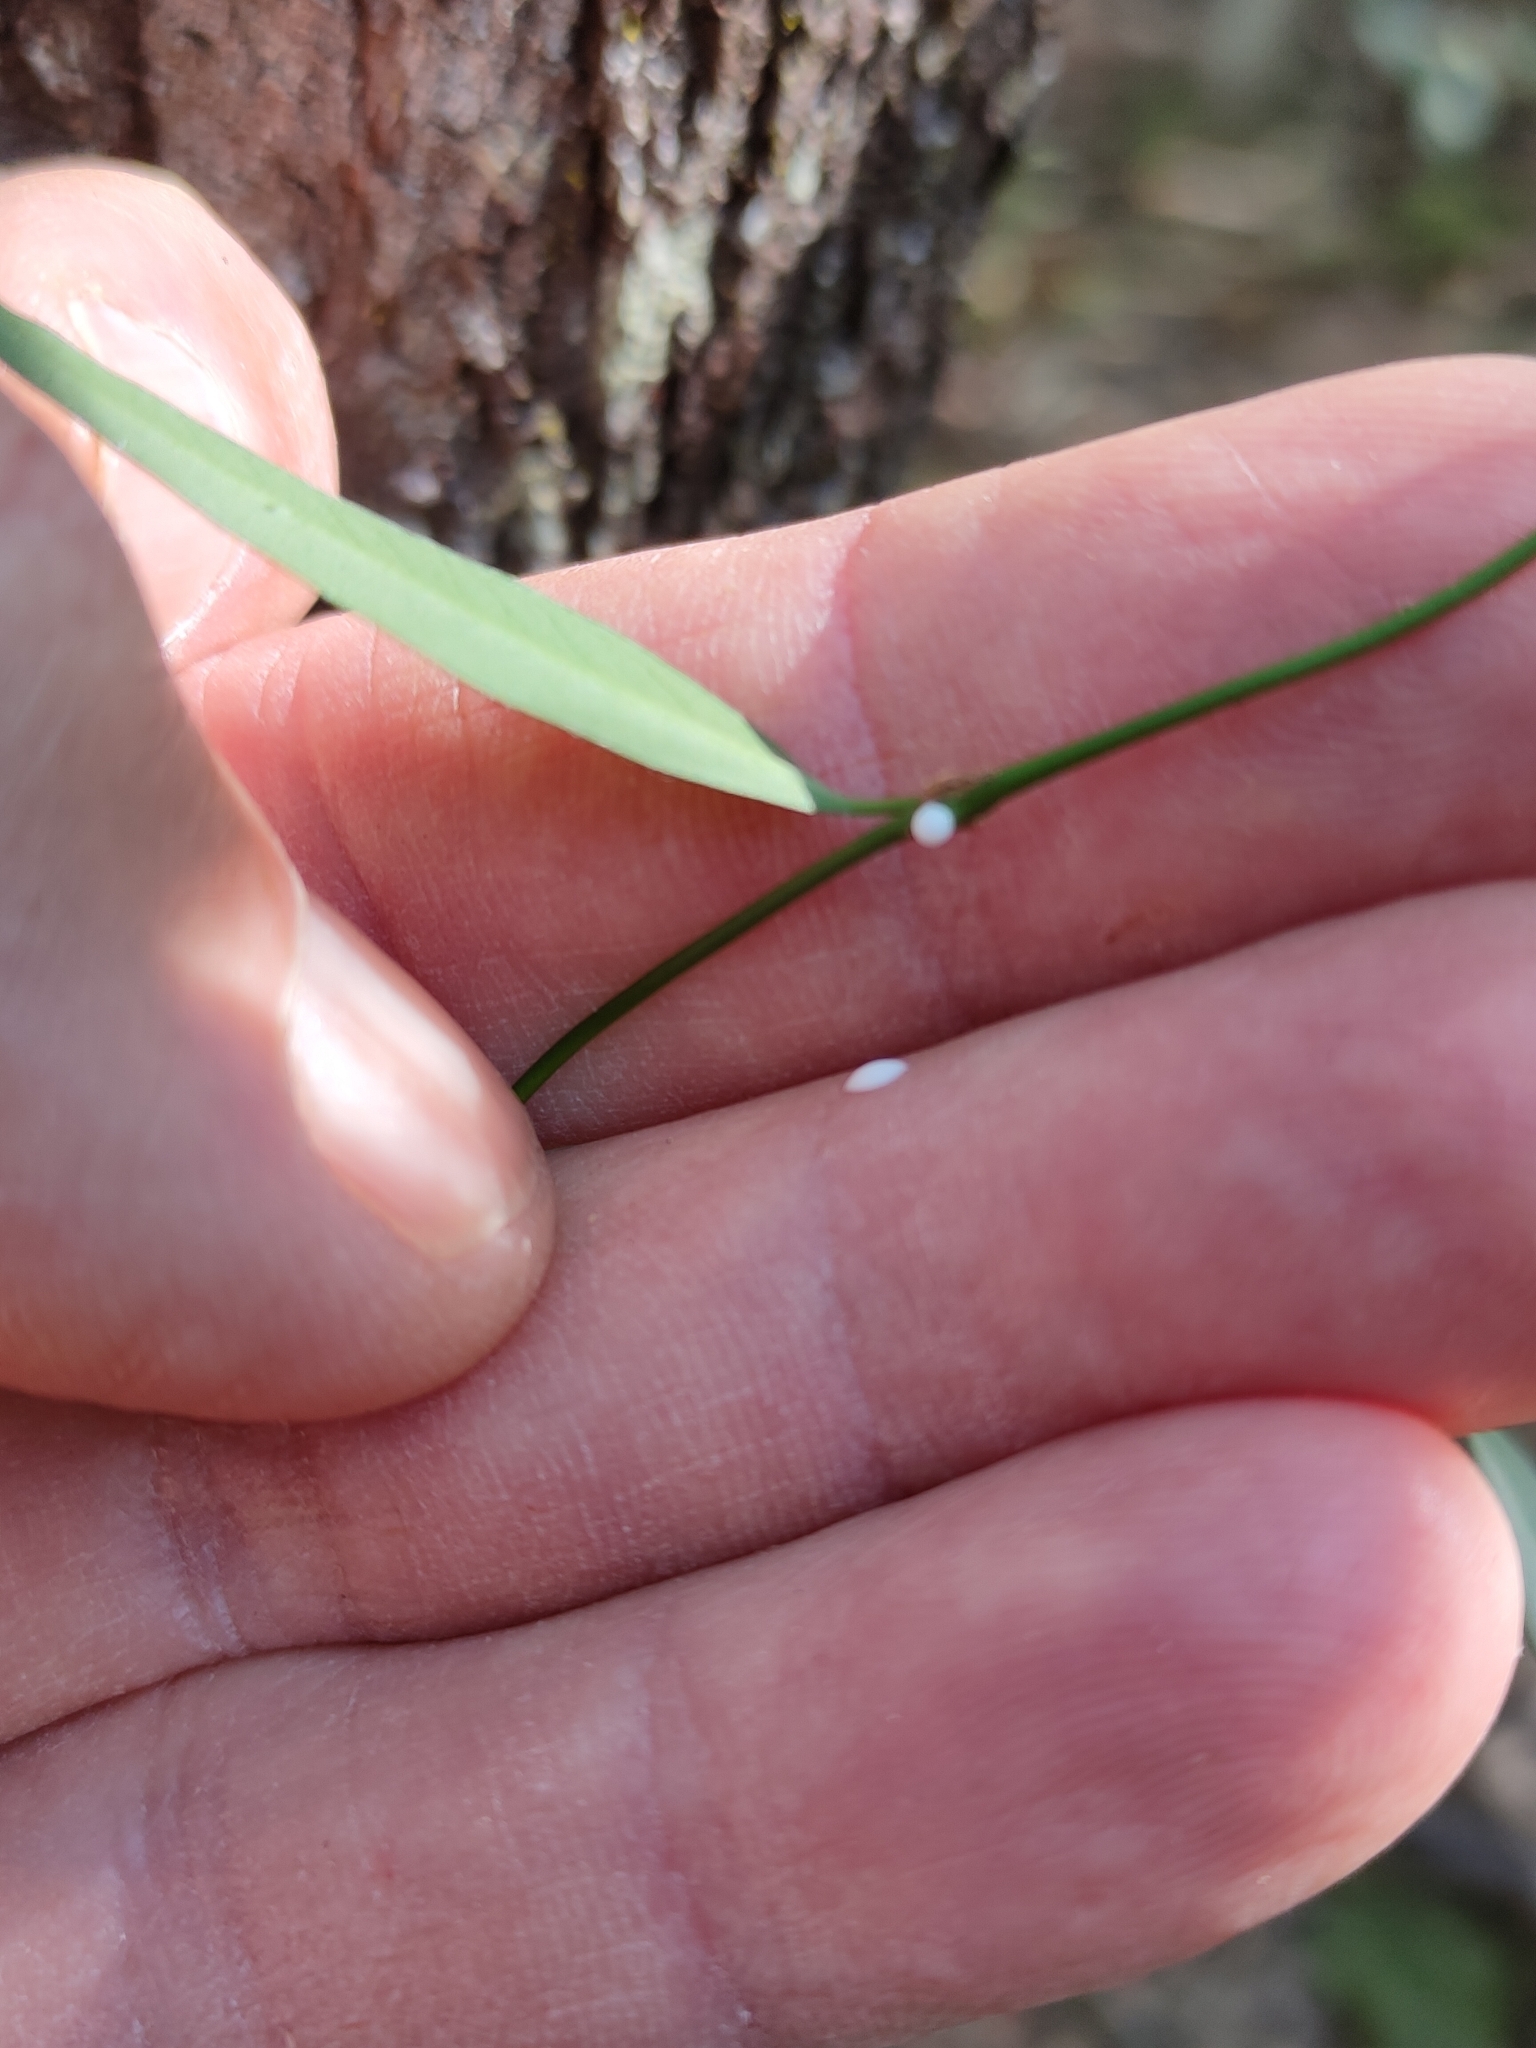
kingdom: Plantae
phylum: Tracheophyta
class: Magnoliopsida
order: Gentianales
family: Apocynaceae
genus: Secamone
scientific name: Secamone elliptica
